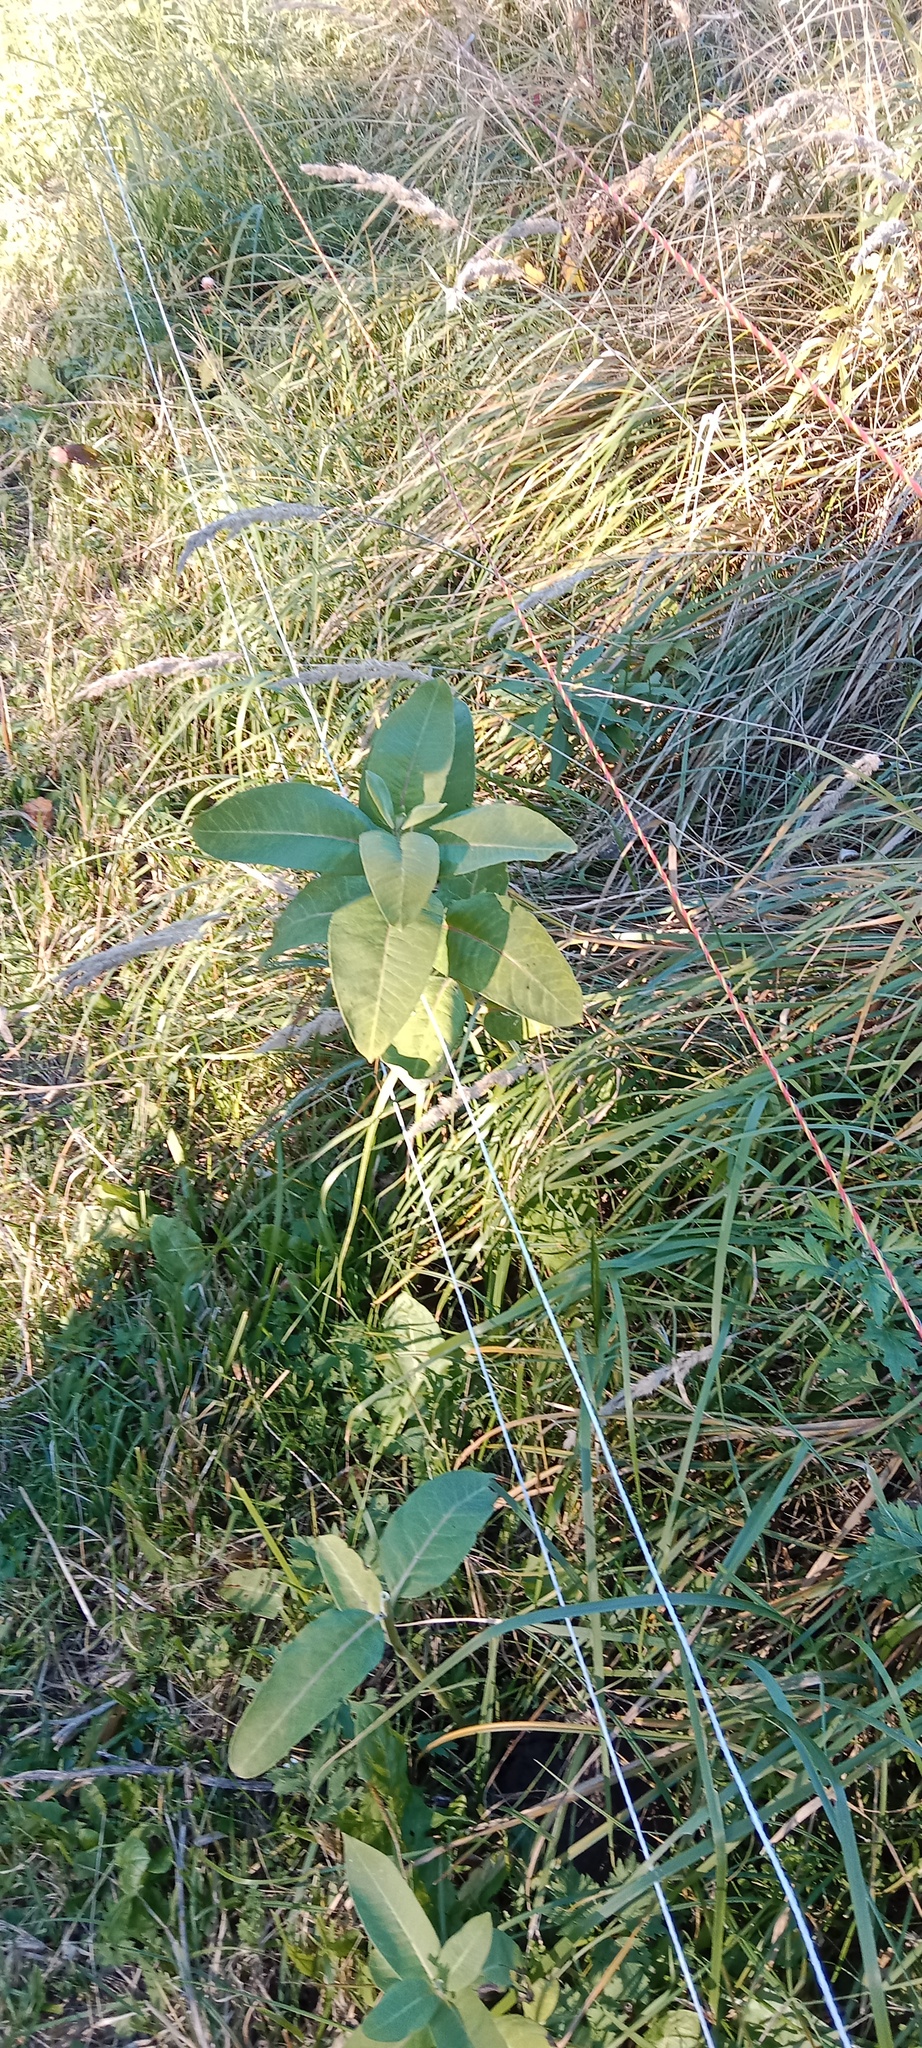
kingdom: Plantae
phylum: Tracheophyta
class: Magnoliopsida
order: Gentianales
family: Apocynaceae
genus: Asclepias
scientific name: Asclepias syriaca
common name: Common milkweed
